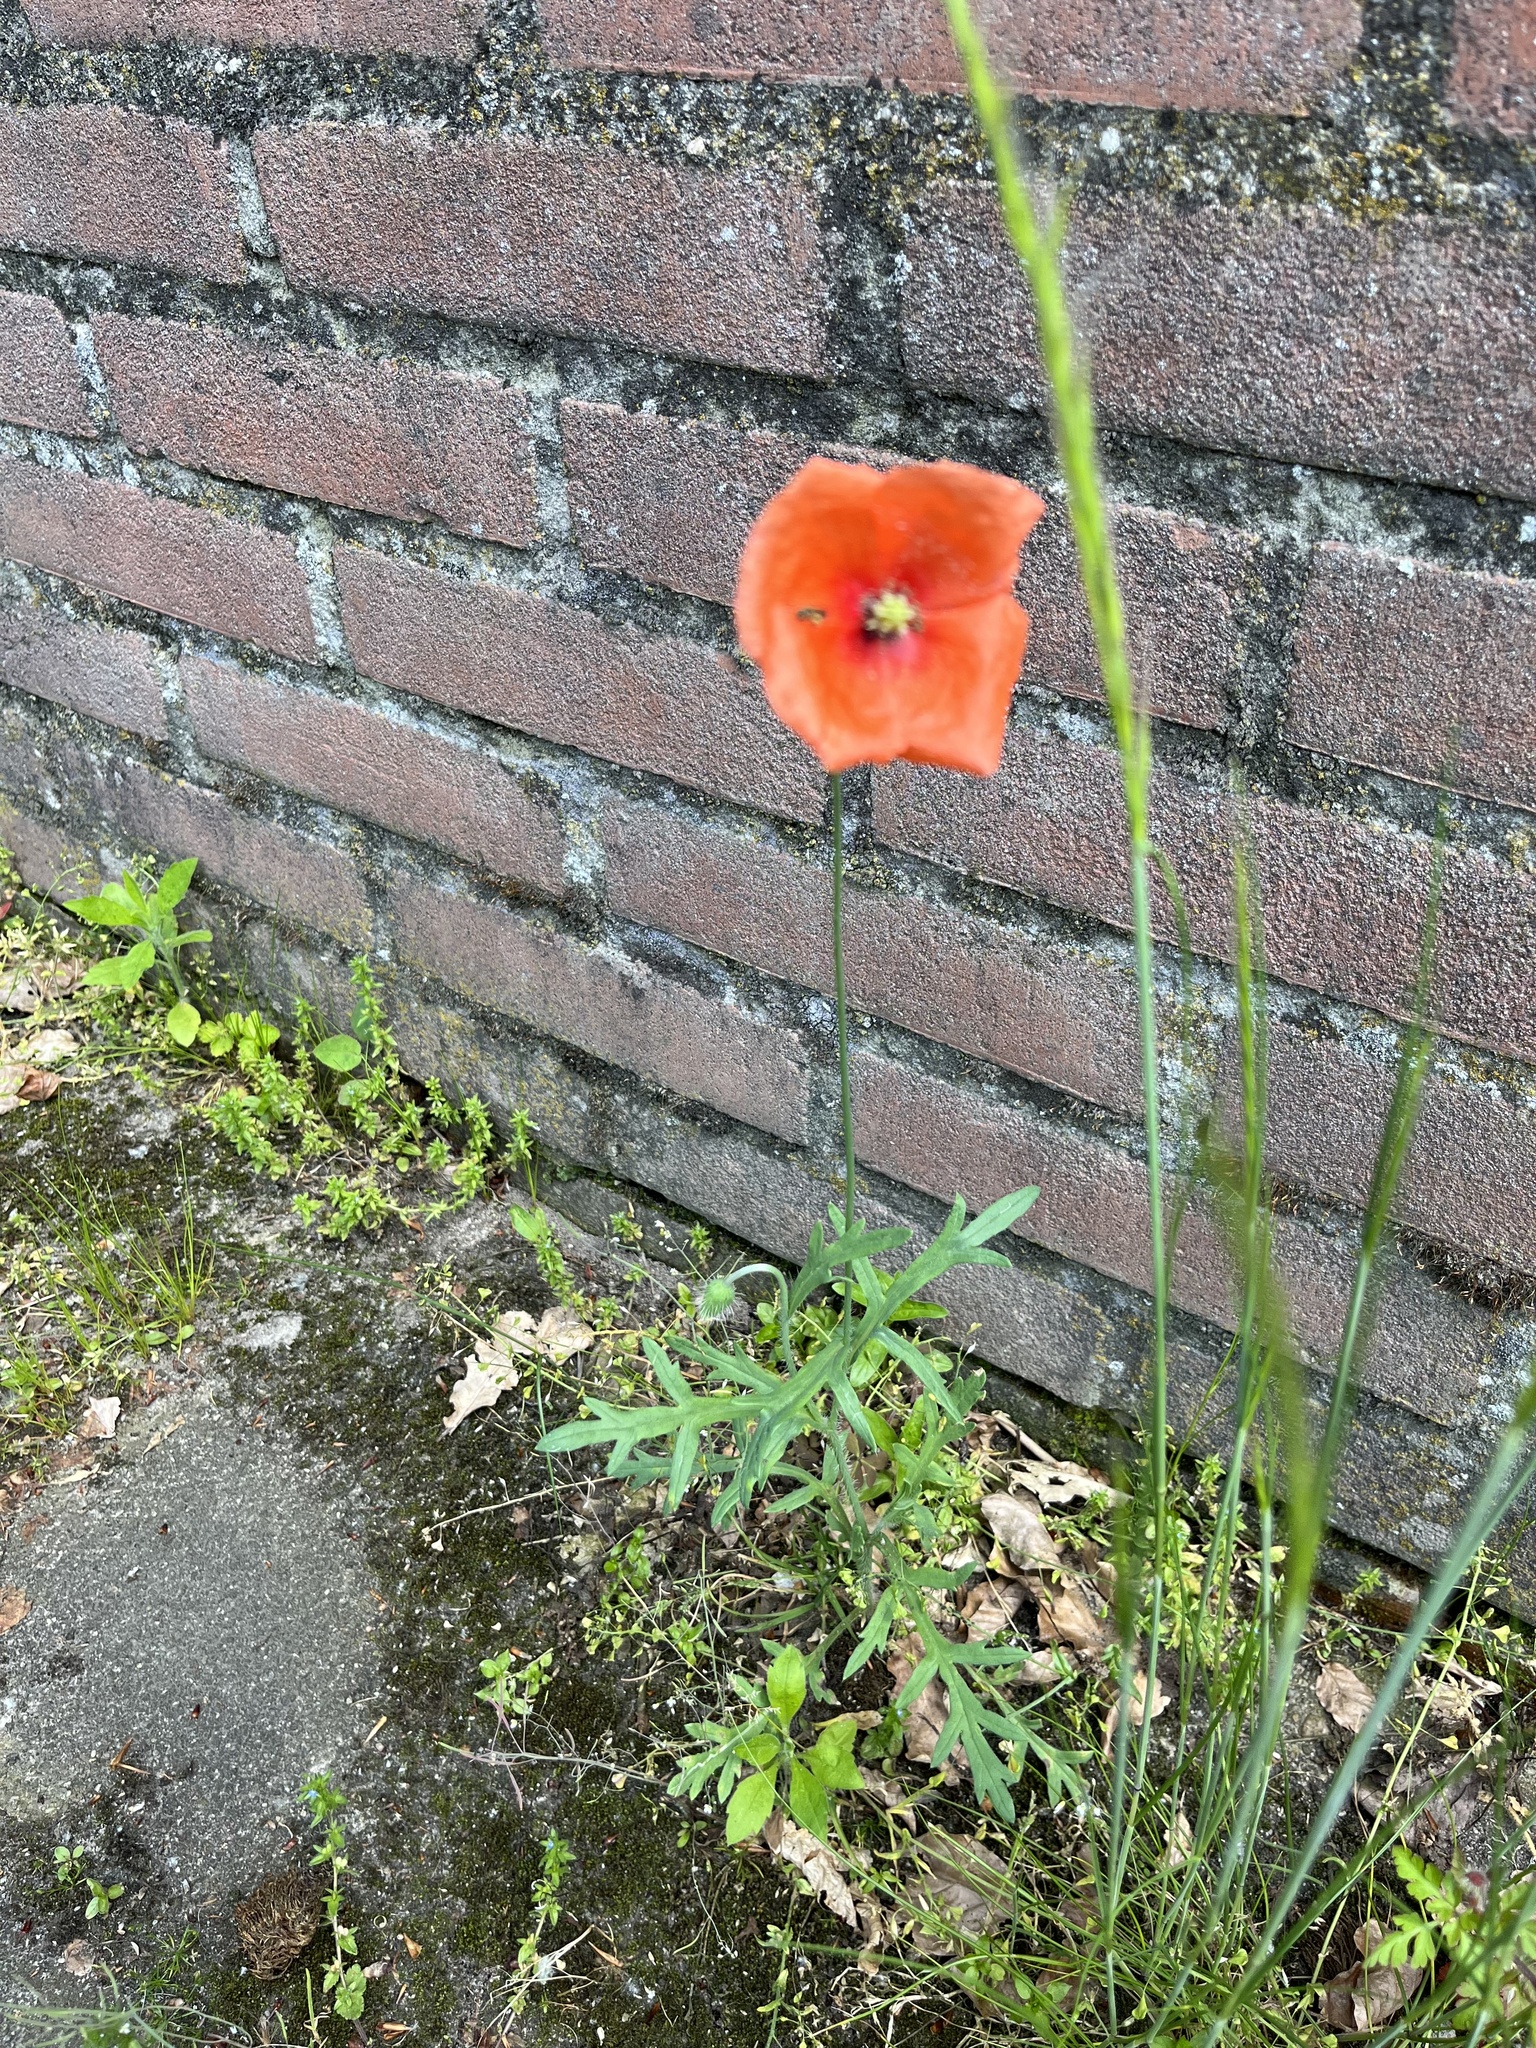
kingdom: Plantae
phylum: Tracheophyta
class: Magnoliopsida
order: Ranunculales
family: Papaveraceae
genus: Papaver
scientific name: Papaver rhoeas
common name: Corn poppy
